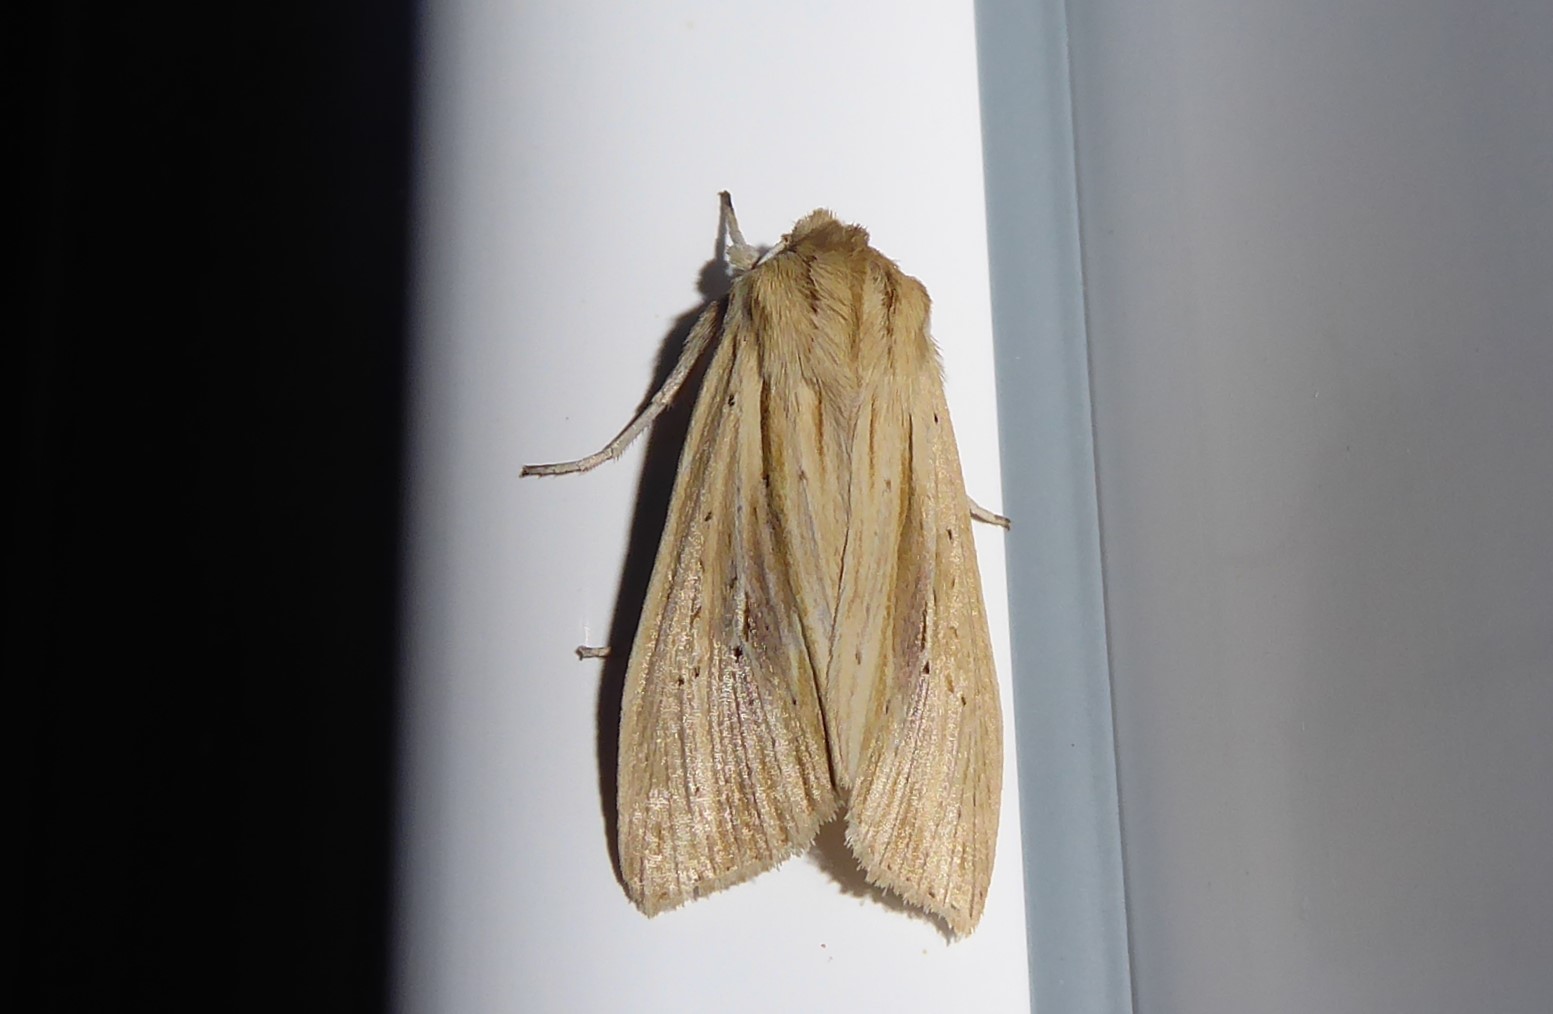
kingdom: Animalia
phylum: Arthropoda
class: Insecta
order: Lepidoptera
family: Noctuidae
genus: Ichneutica
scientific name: Ichneutica semivittata
